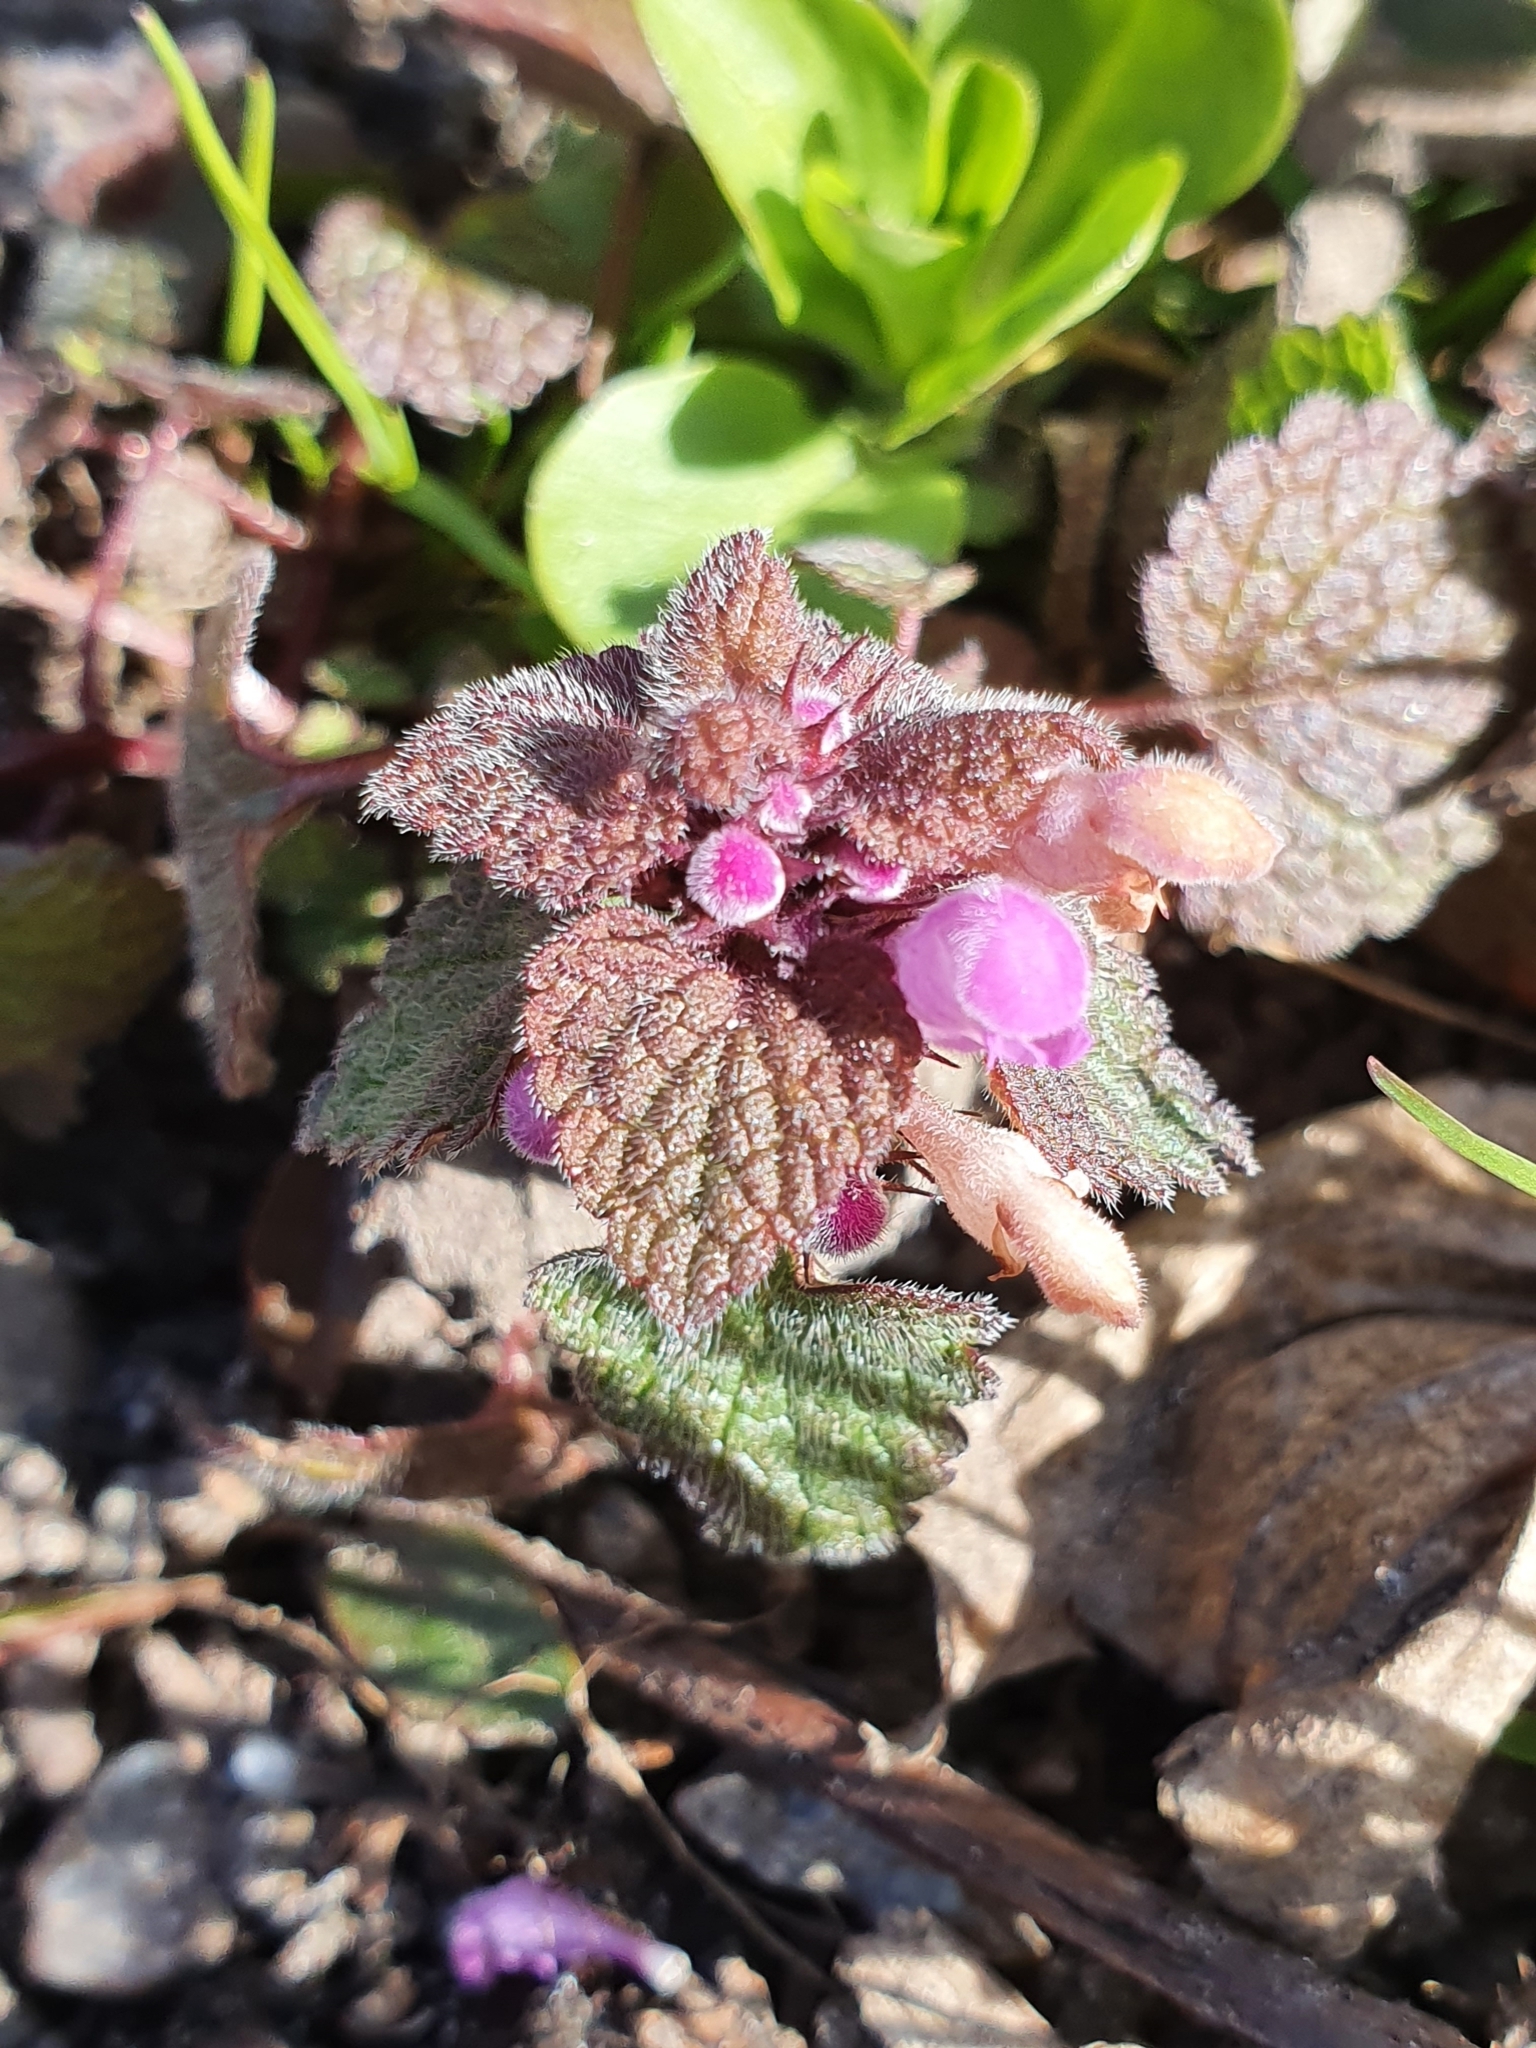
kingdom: Plantae
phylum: Tracheophyta
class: Magnoliopsida
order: Lamiales
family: Lamiaceae
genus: Lamium
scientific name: Lamium purpureum
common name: Red dead-nettle
